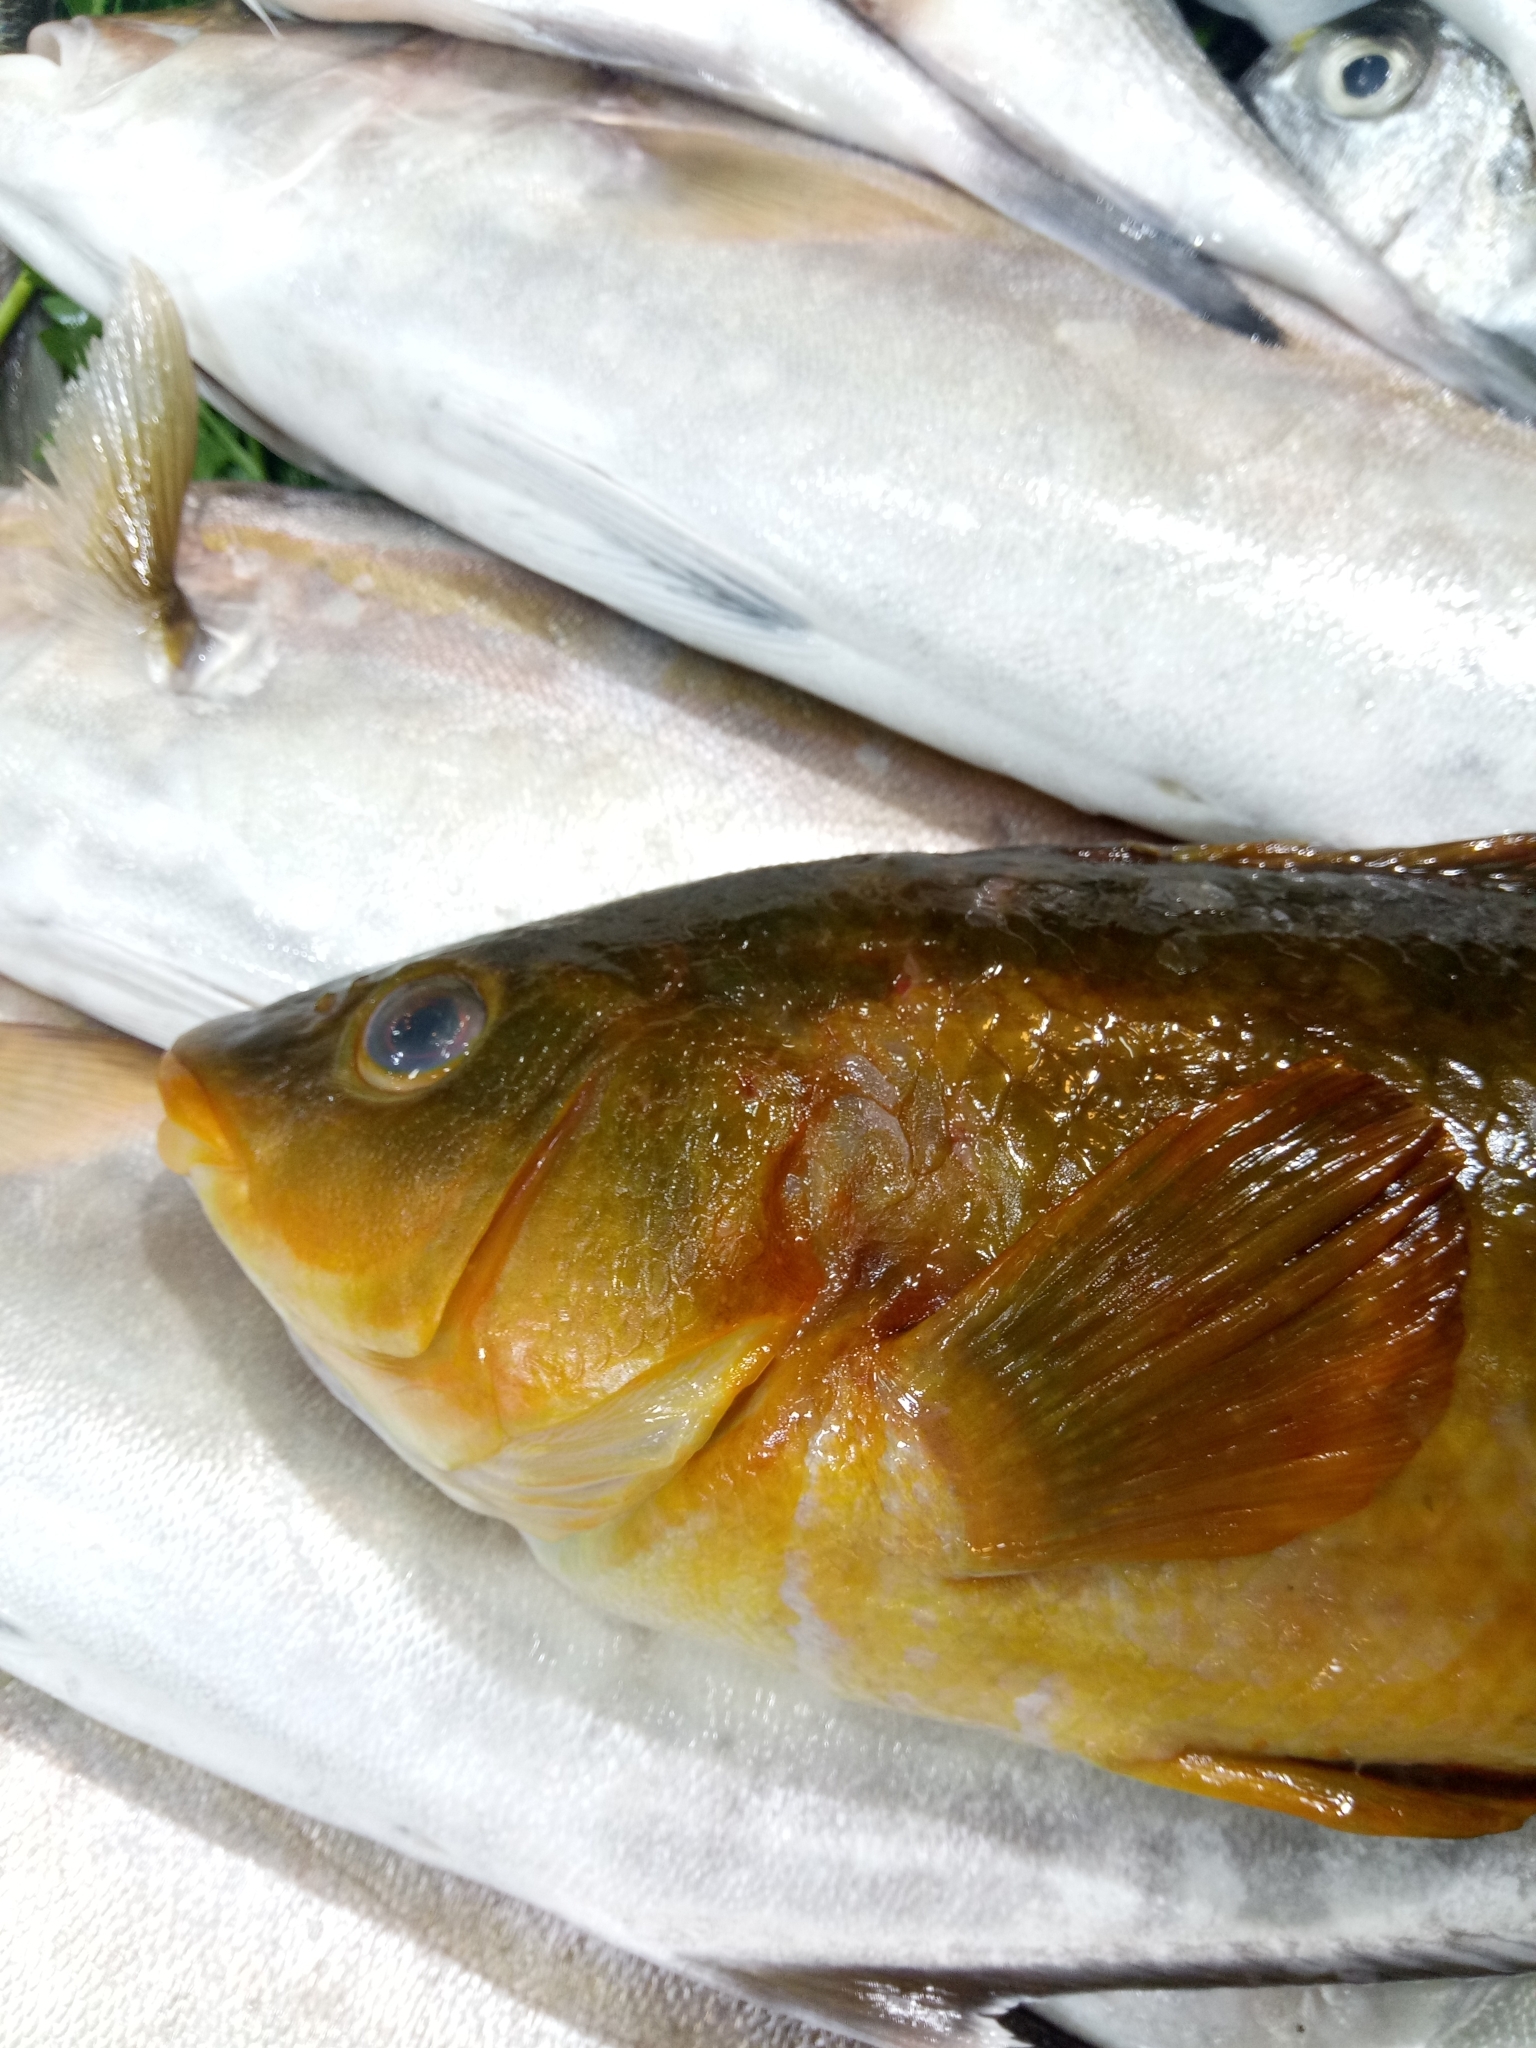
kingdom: Animalia
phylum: Chordata
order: Perciformes
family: Labridae
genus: Labrus
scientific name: Labrus merula
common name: Brown wrasse
